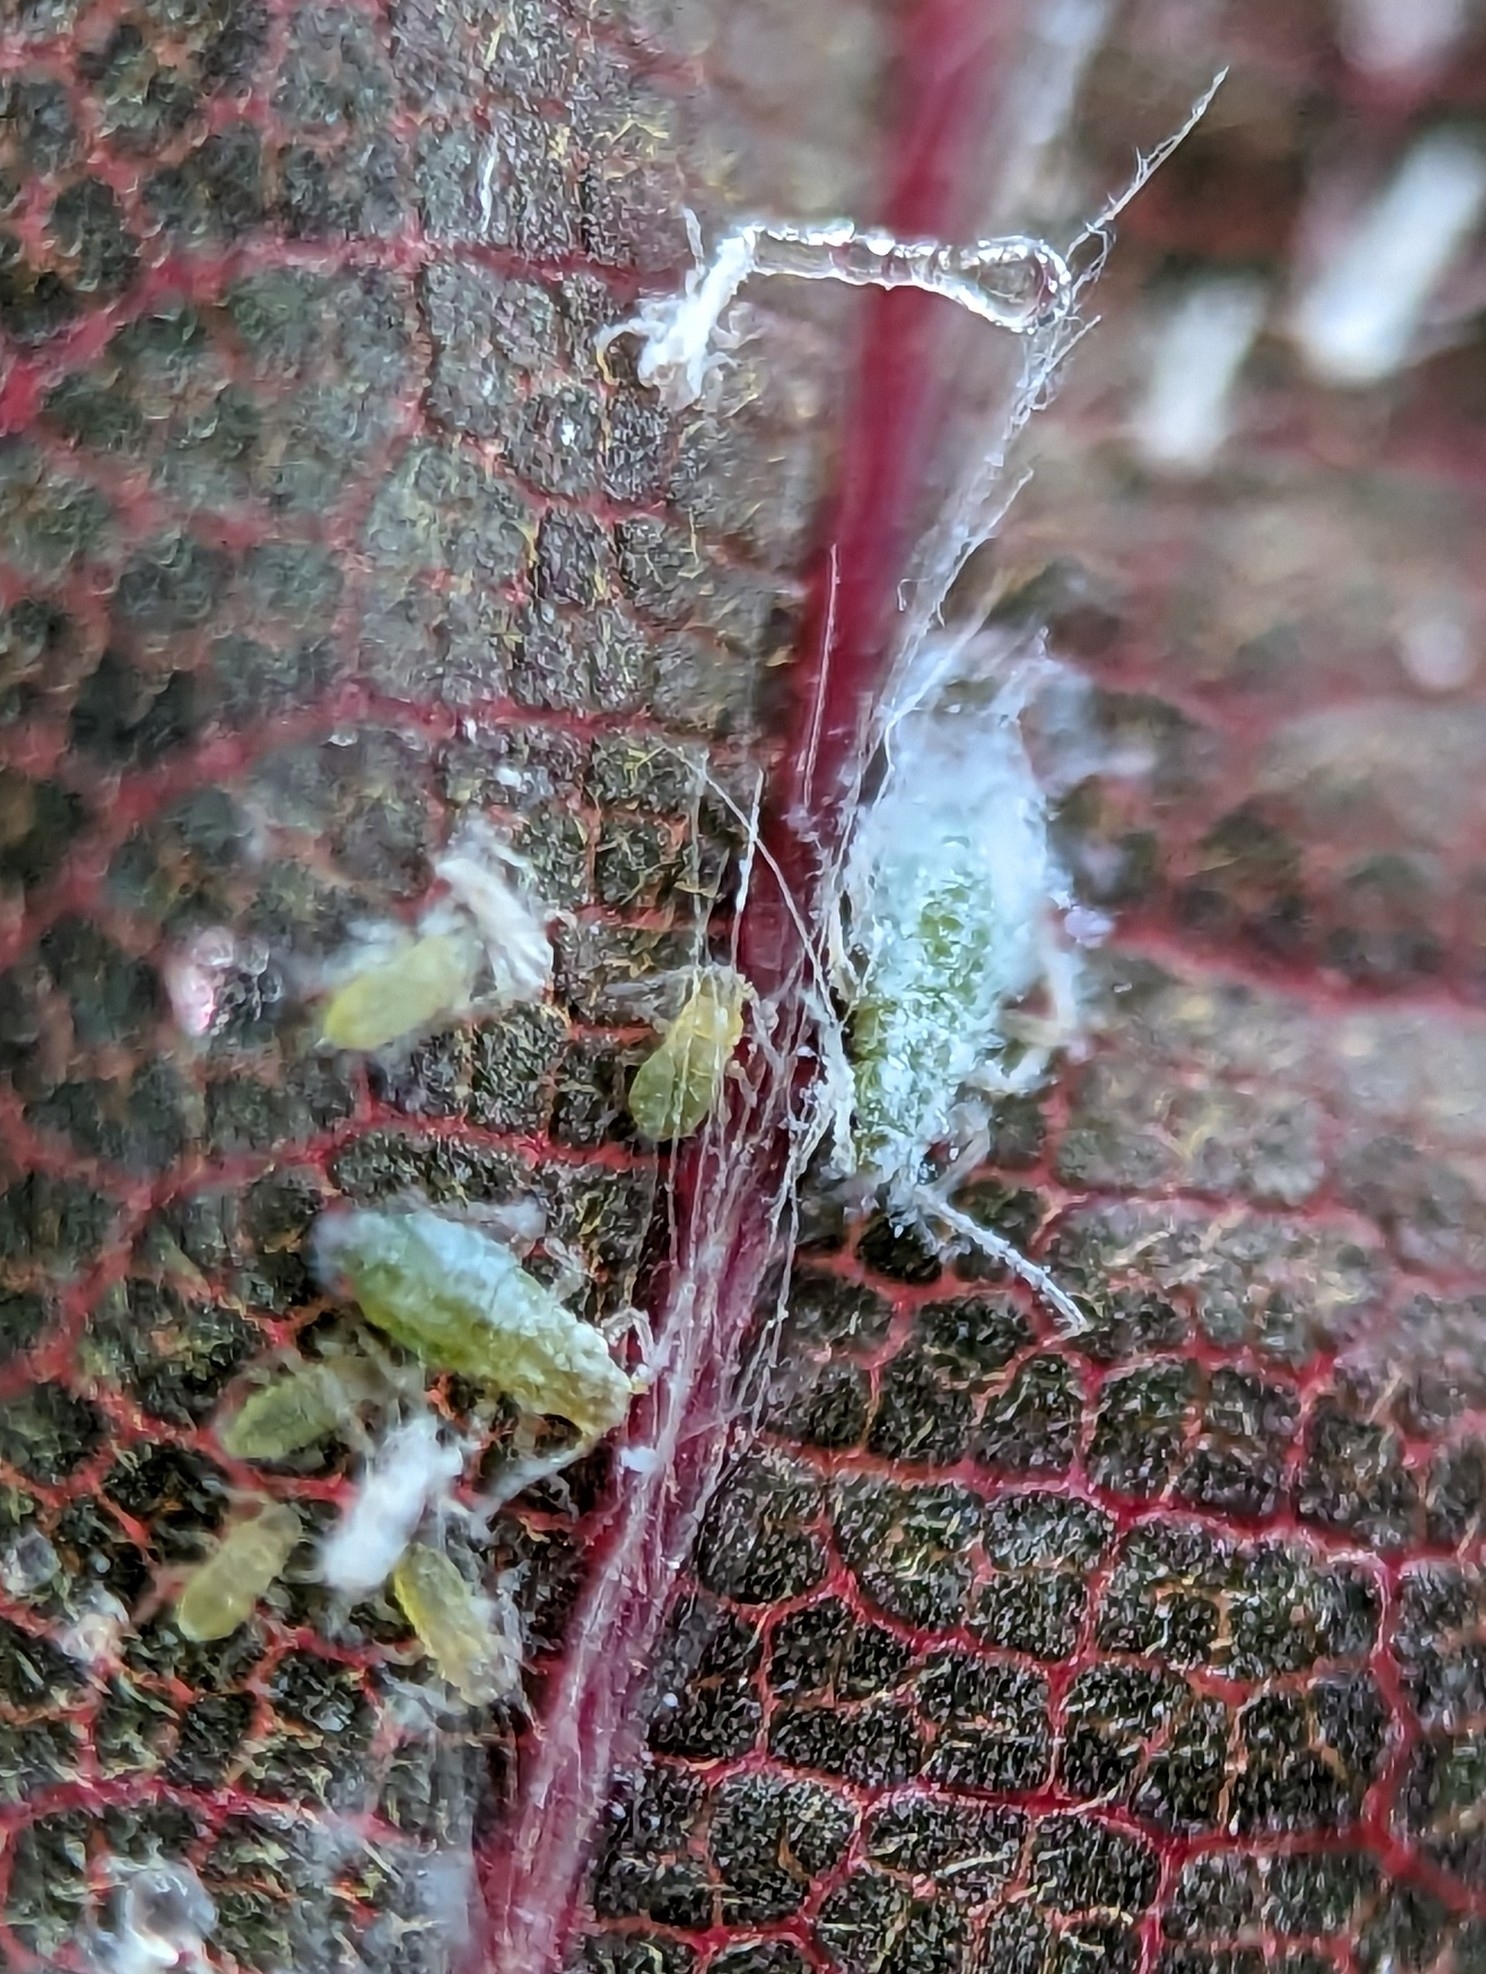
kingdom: Animalia
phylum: Arthropoda
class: Insecta
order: Hemiptera
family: Aphididae
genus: Phyllaphis
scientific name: Phyllaphis fagi
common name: Beech aphid
